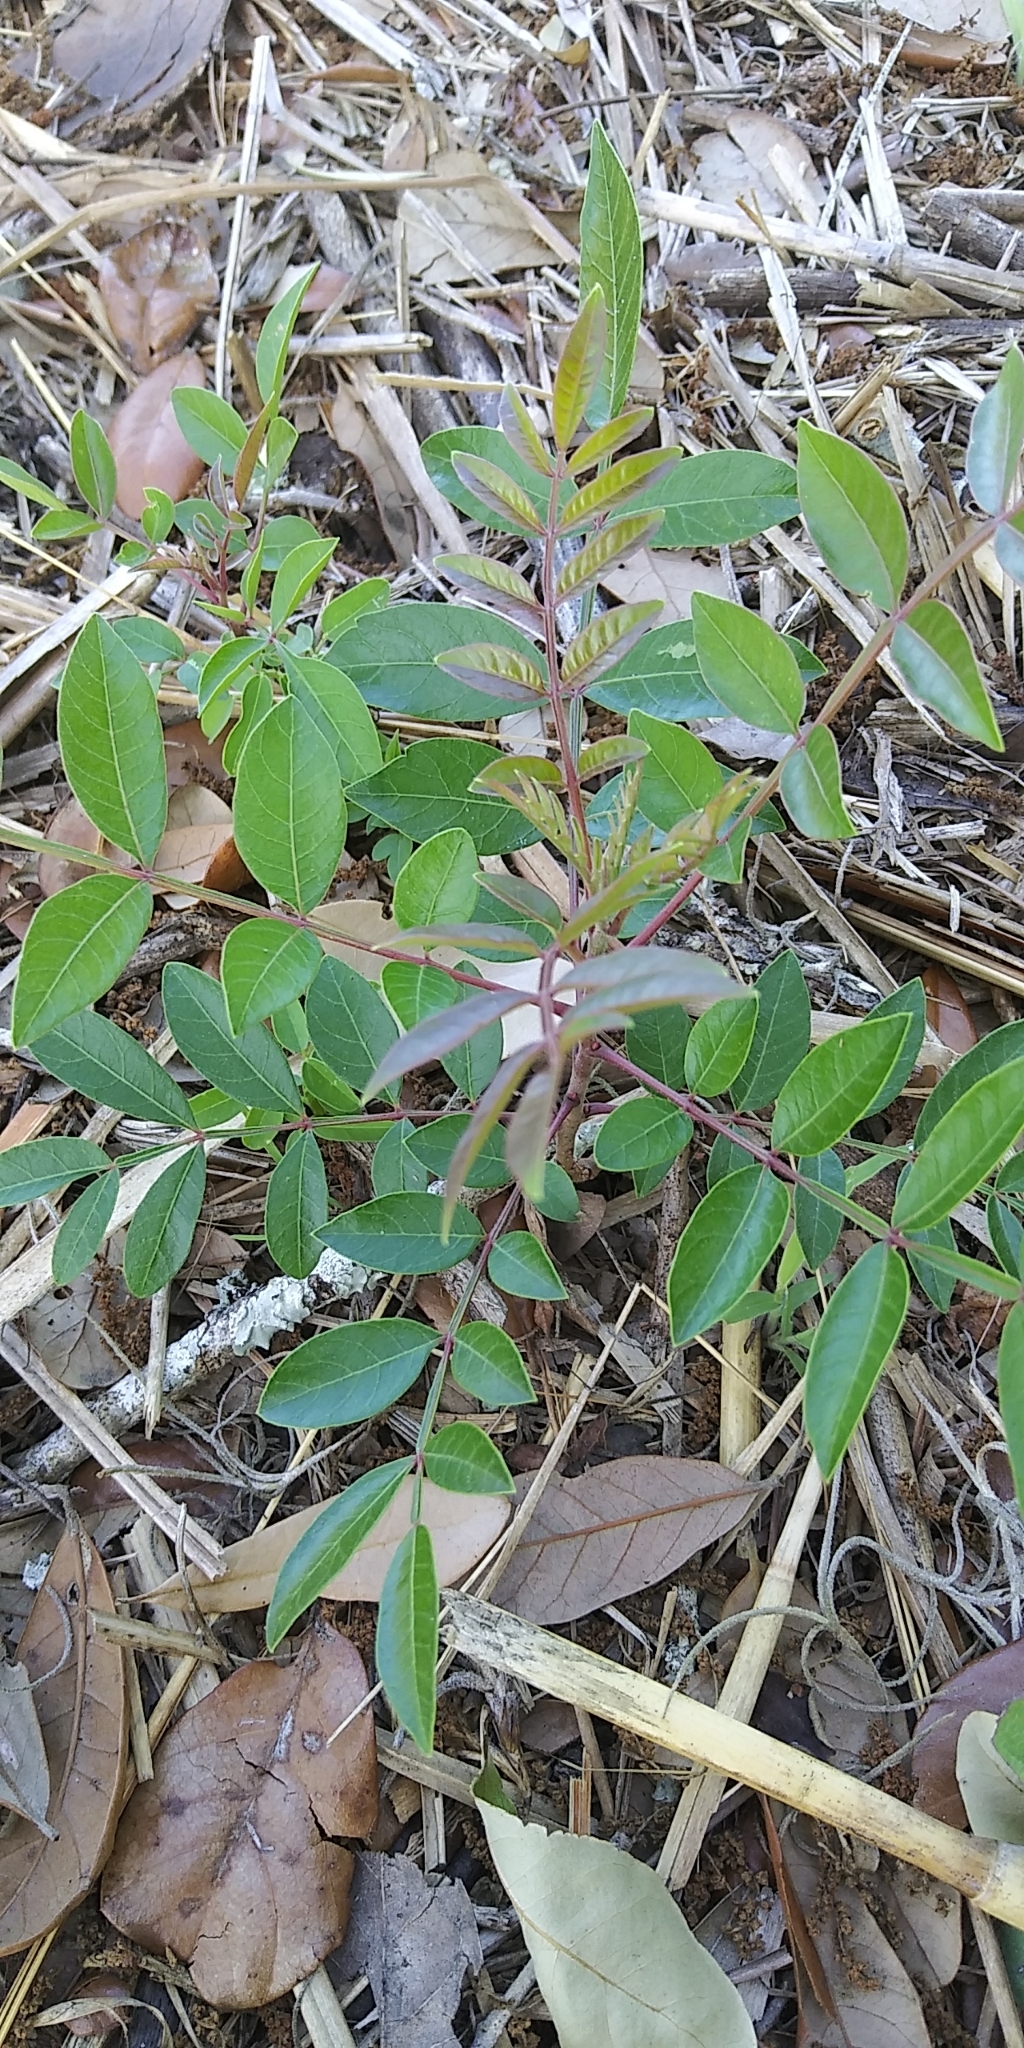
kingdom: Plantae
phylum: Tracheophyta
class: Magnoliopsida
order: Sapindales
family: Anacardiaceae
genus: Rhus
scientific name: Rhus copallina
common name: Shining sumac
